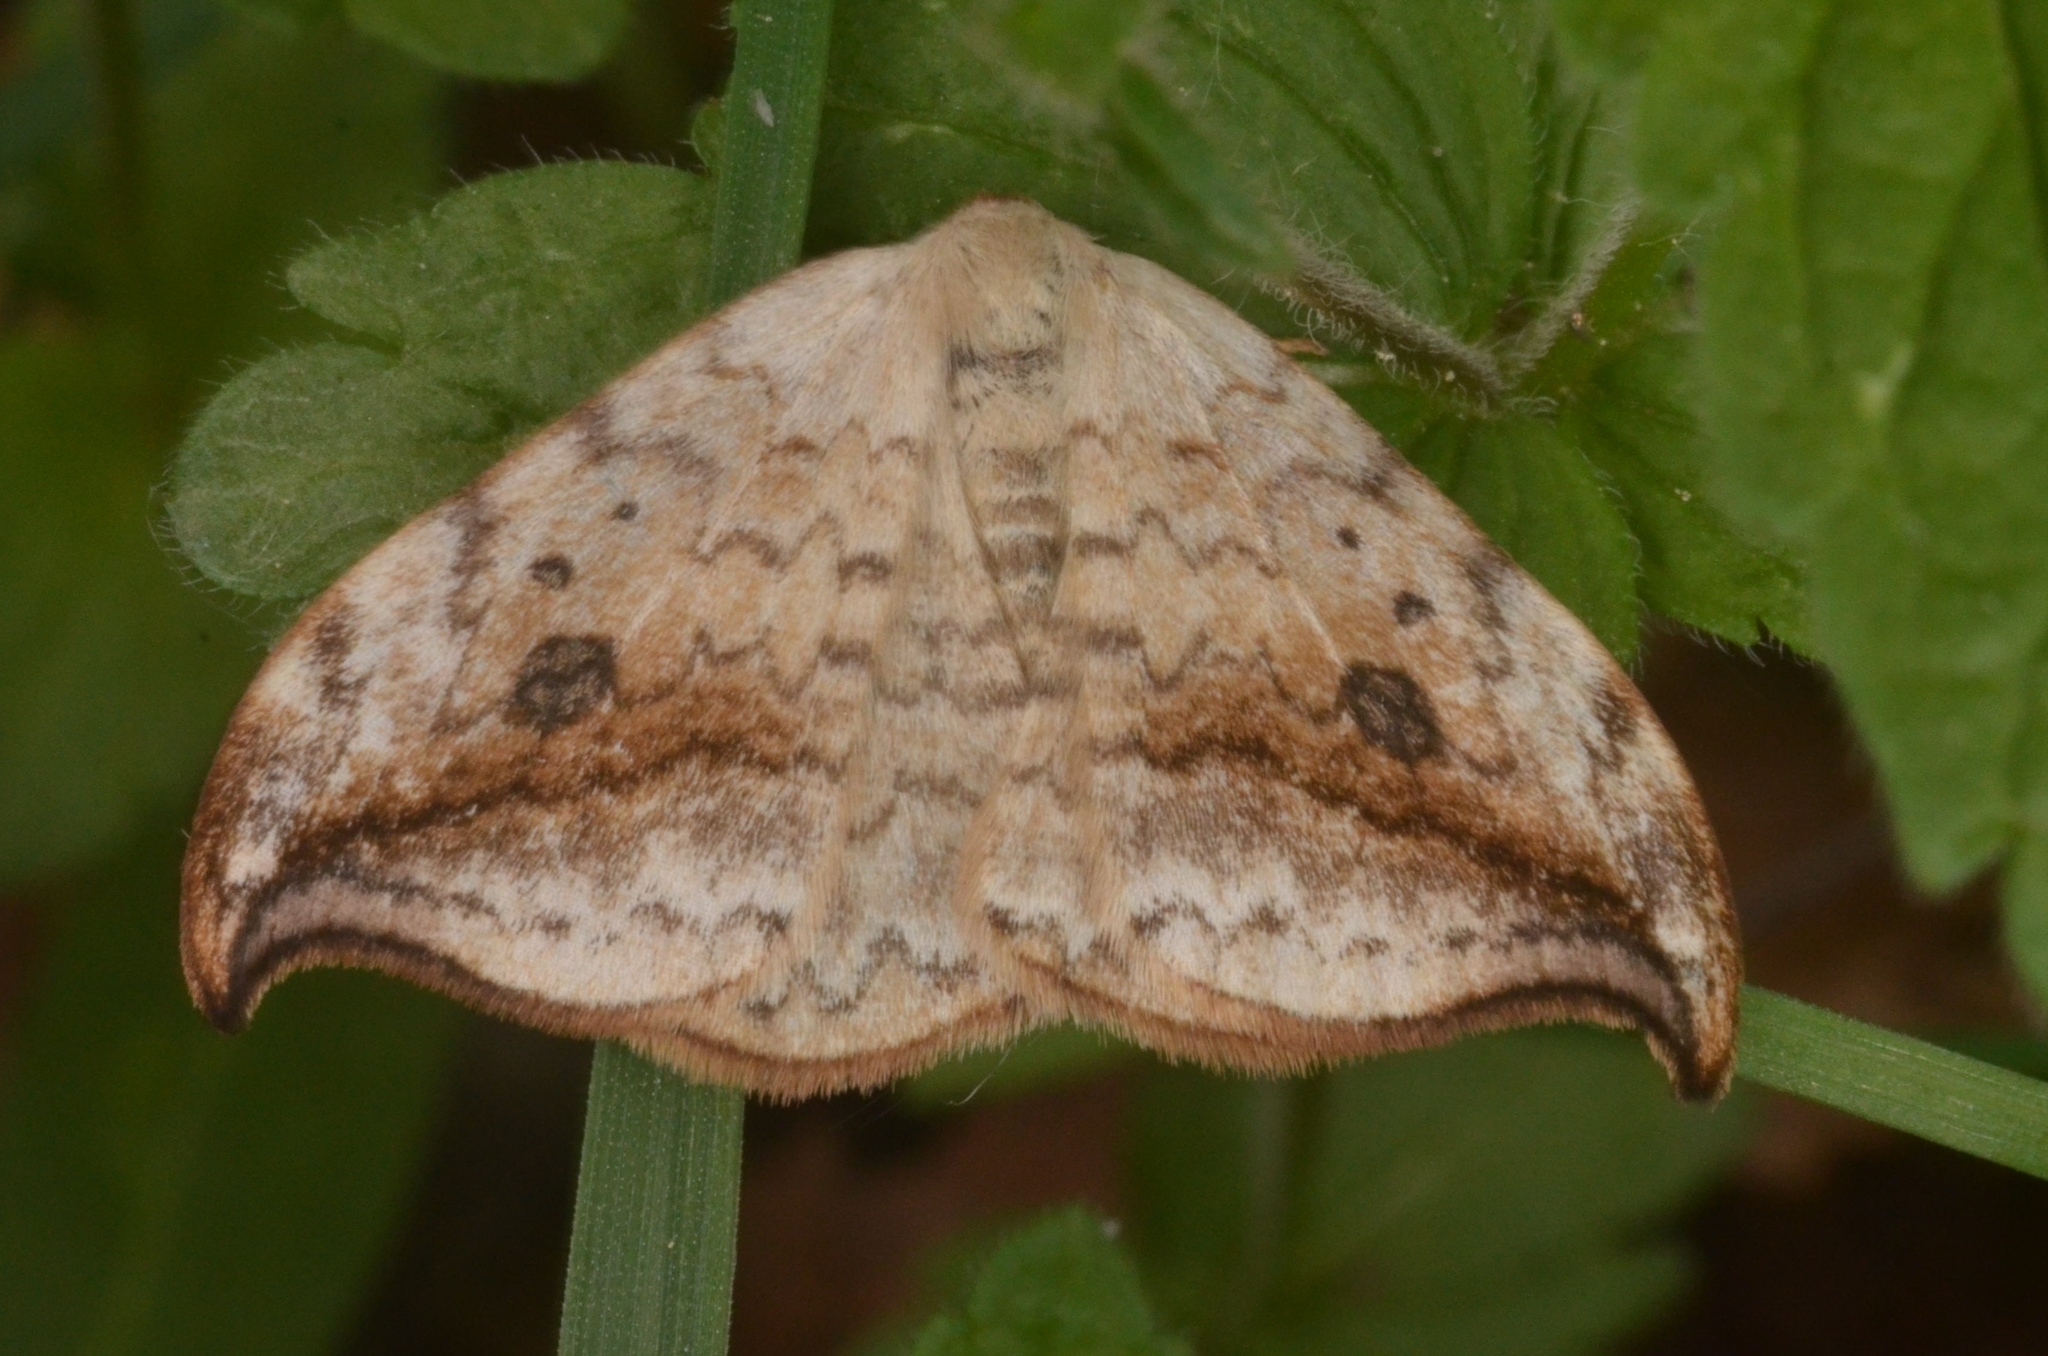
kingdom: Animalia
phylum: Arthropoda
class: Insecta
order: Lepidoptera
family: Drepanidae
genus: Drepana
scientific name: Drepana falcataria
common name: Pebble hook-tip
